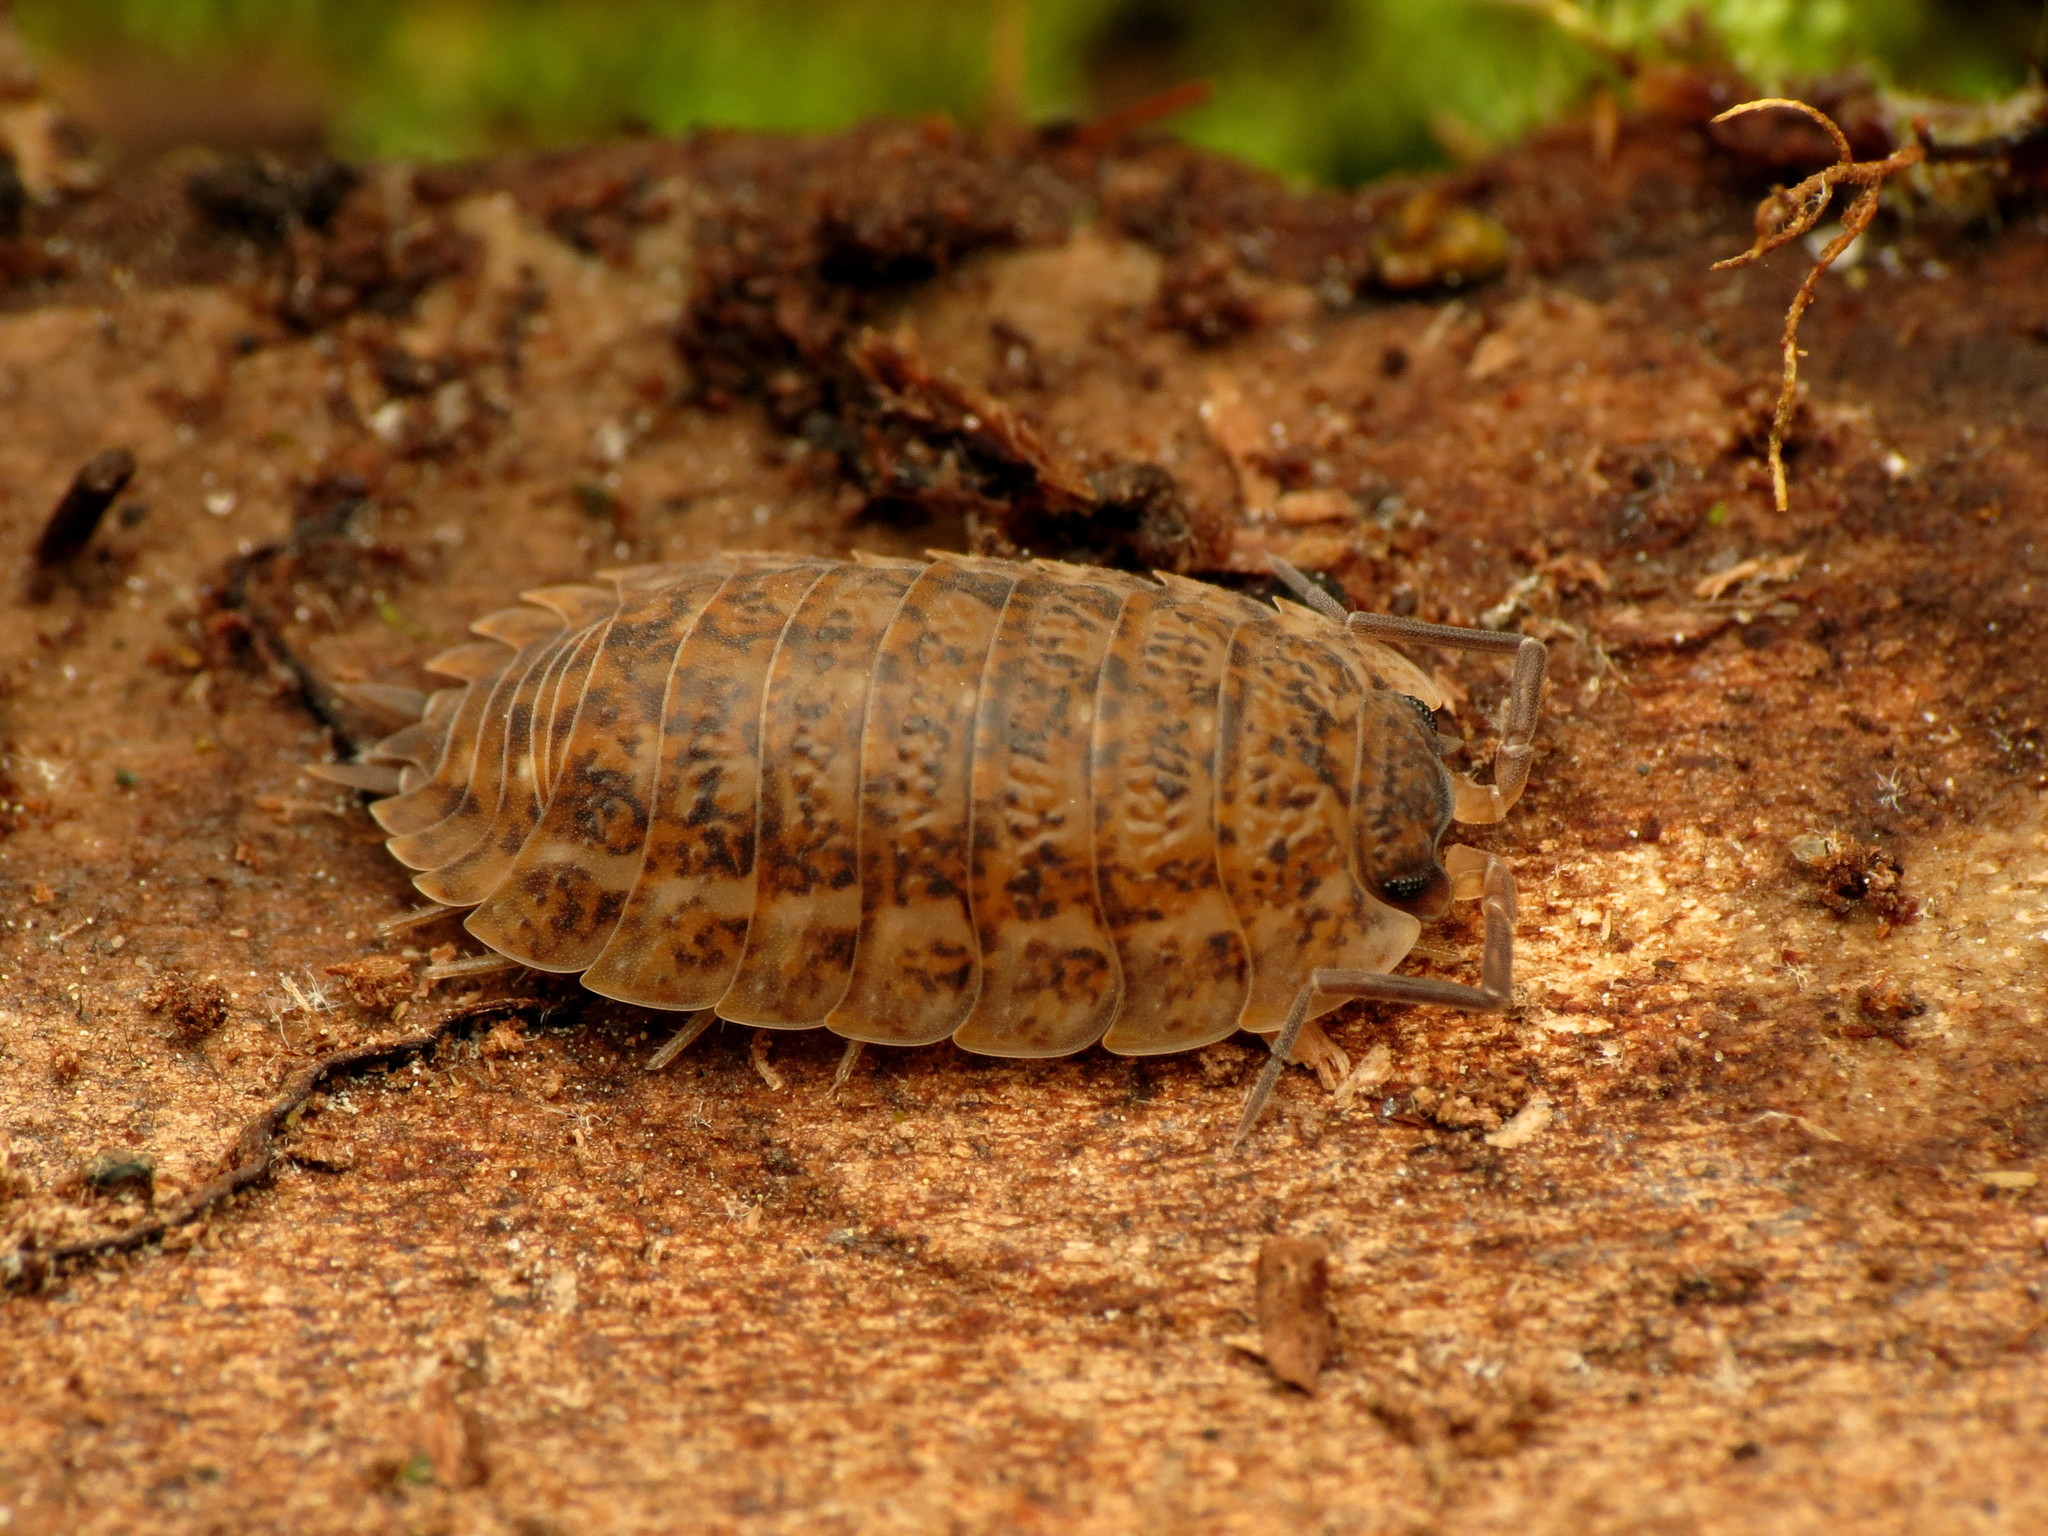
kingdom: Animalia
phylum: Arthropoda
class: Malacostraca
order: Isopoda
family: Trachelipodidae
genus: Trachelipus
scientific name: Trachelipus rathkii
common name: Isopod
